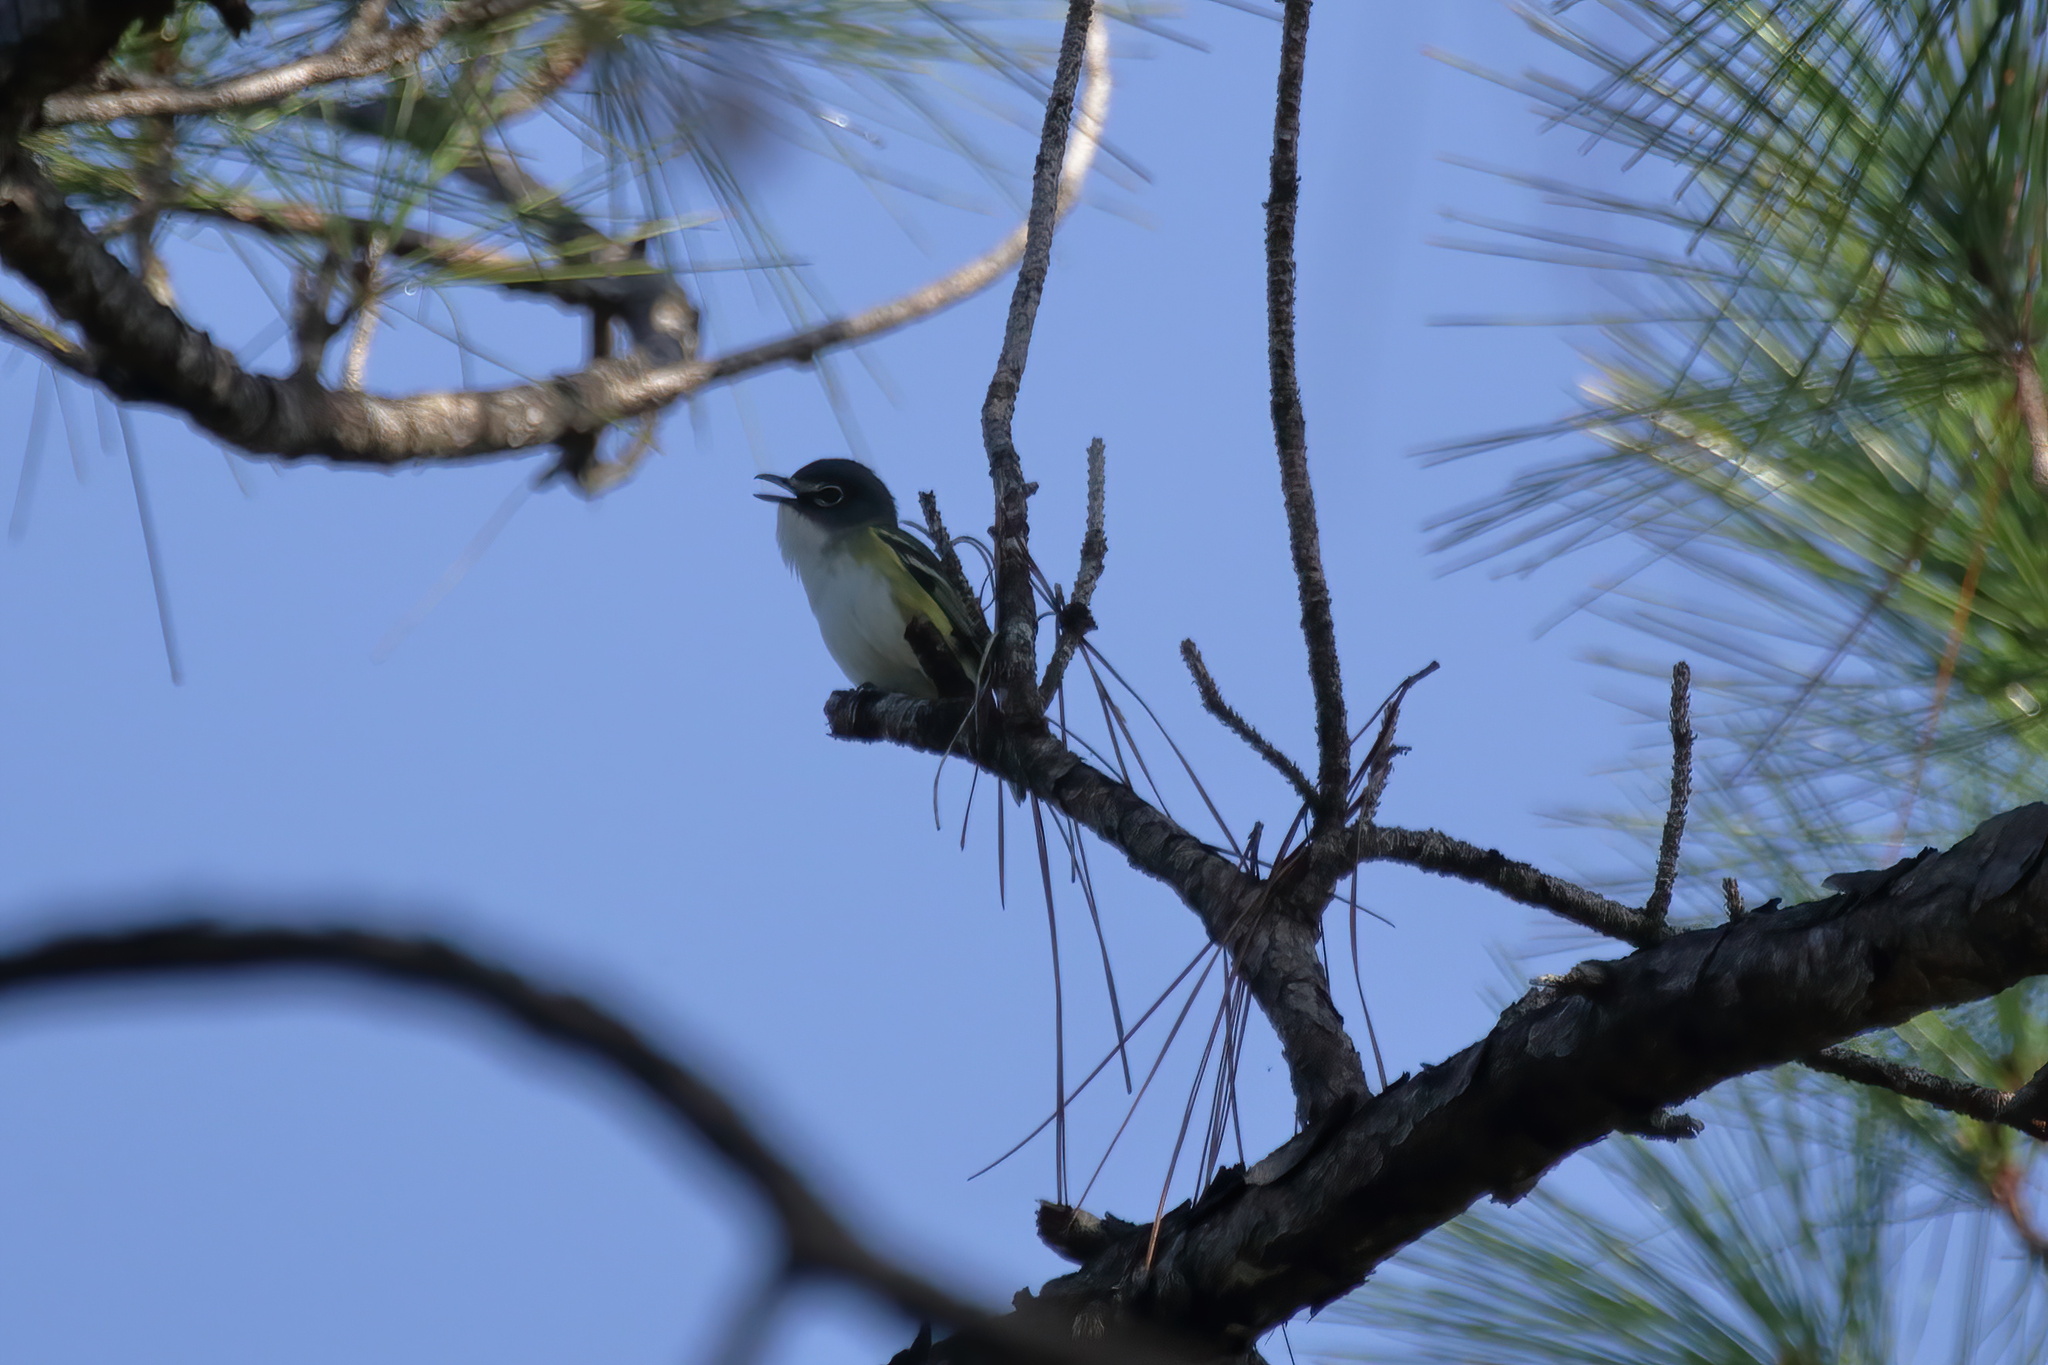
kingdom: Animalia
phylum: Chordata
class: Aves
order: Passeriformes
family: Vireonidae
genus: Vireo
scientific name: Vireo solitarius
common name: Blue-headed vireo
